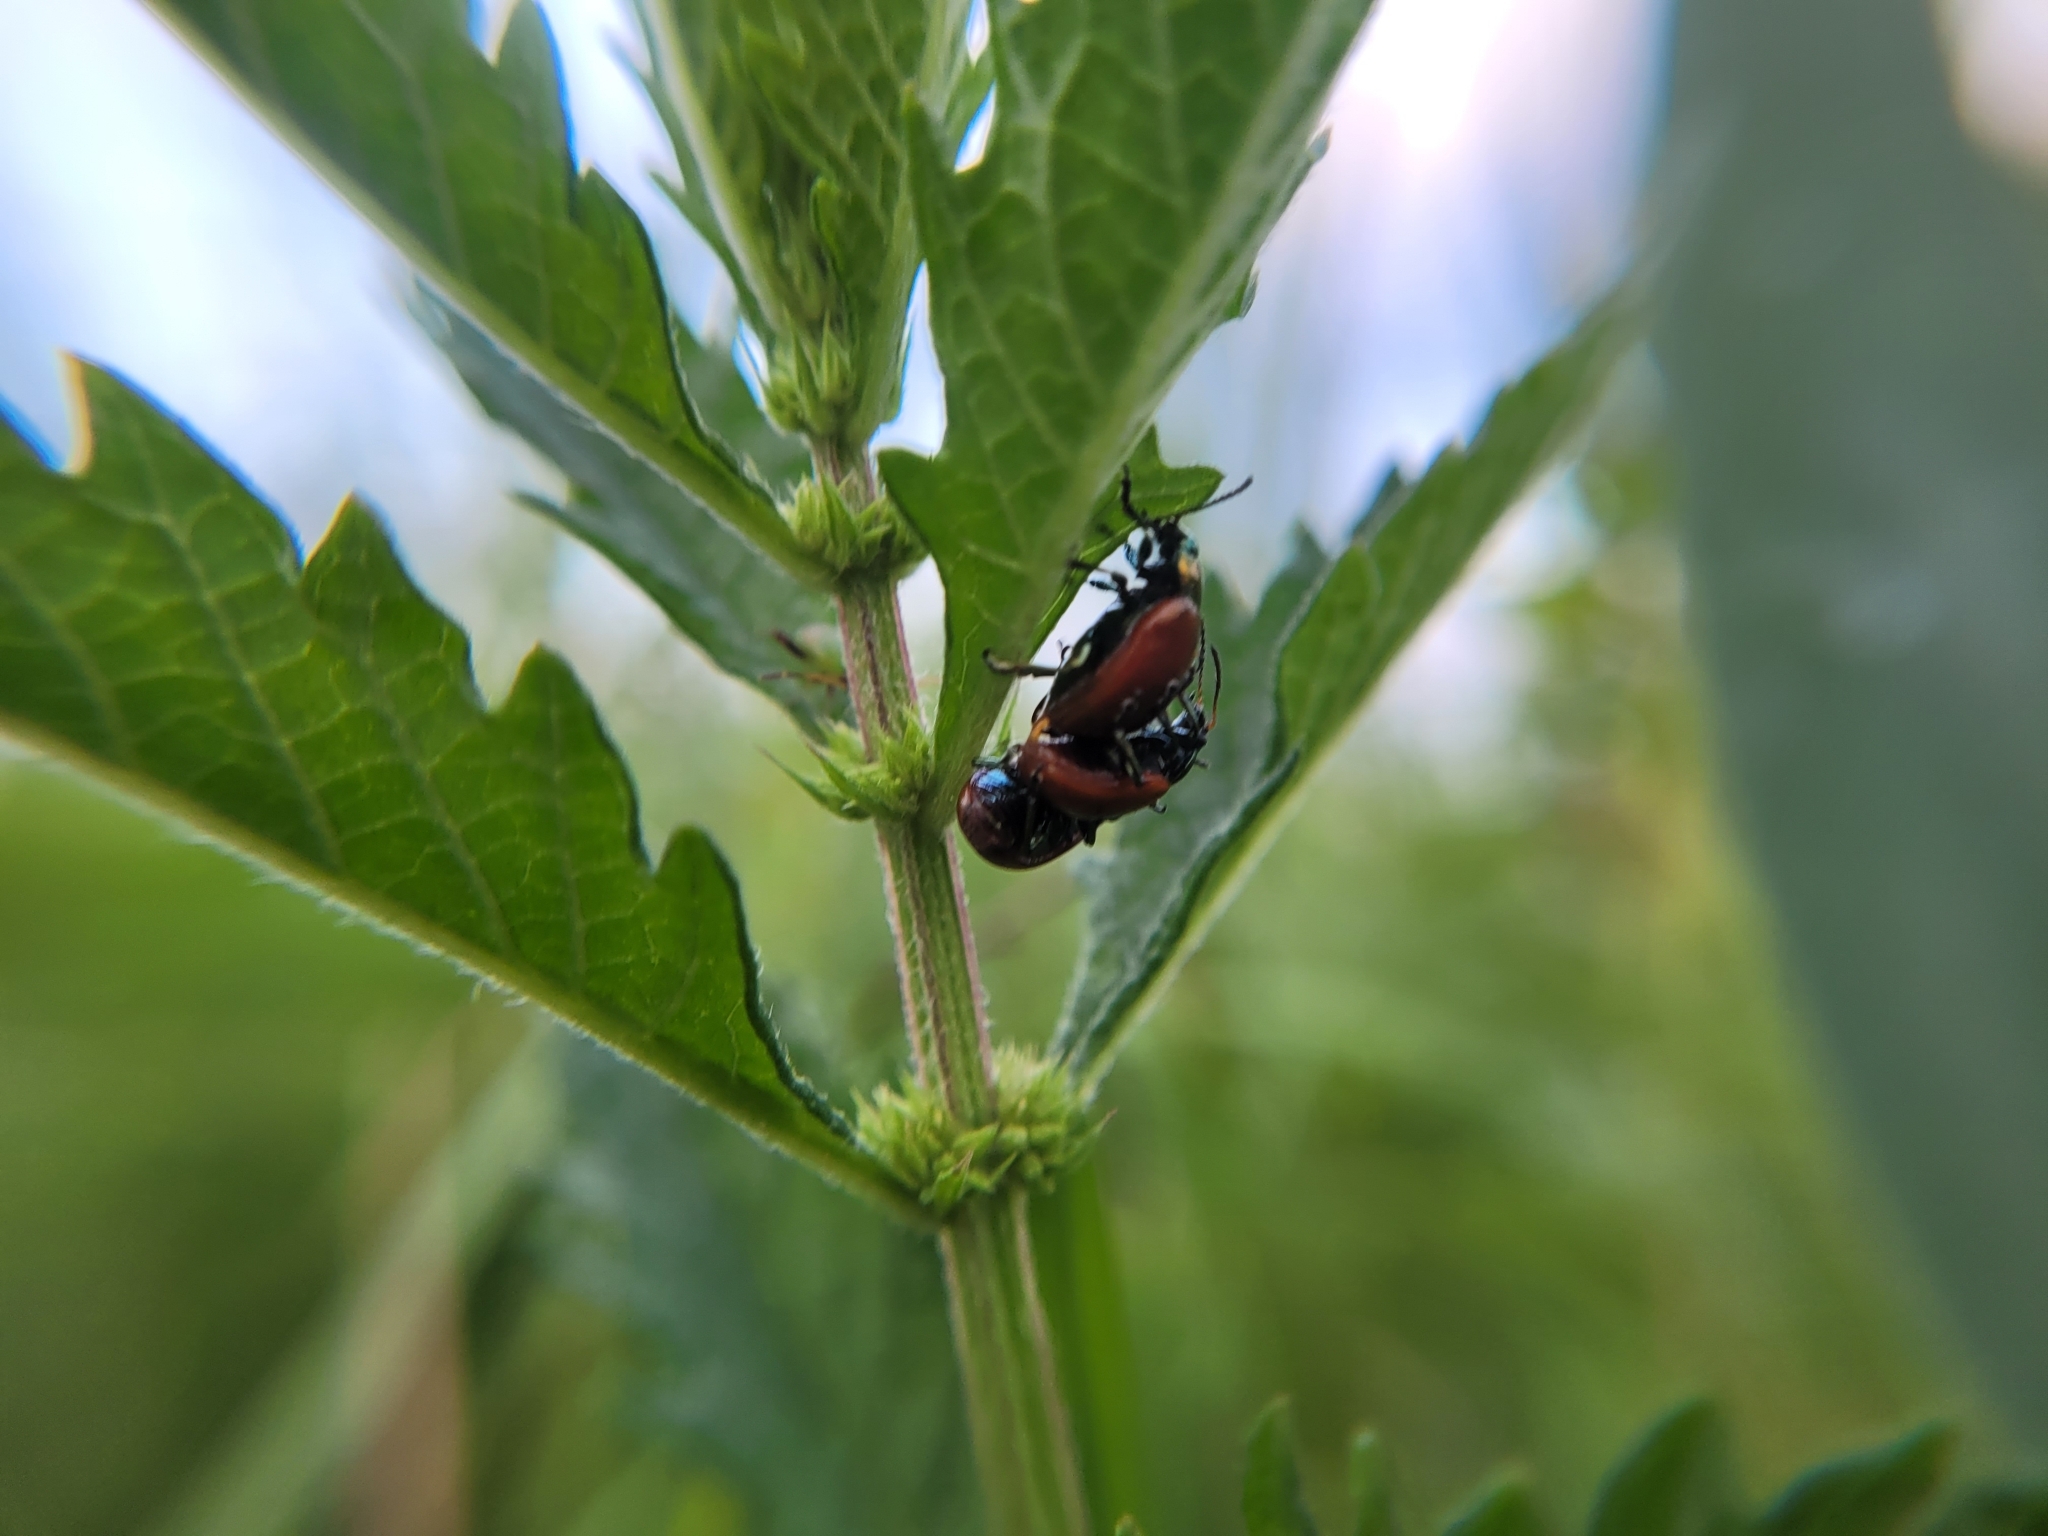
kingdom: Animalia
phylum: Arthropoda
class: Insecta
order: Coleoptera
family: Chrysomelidae
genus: Chrysomela
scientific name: Chrysomela polita
